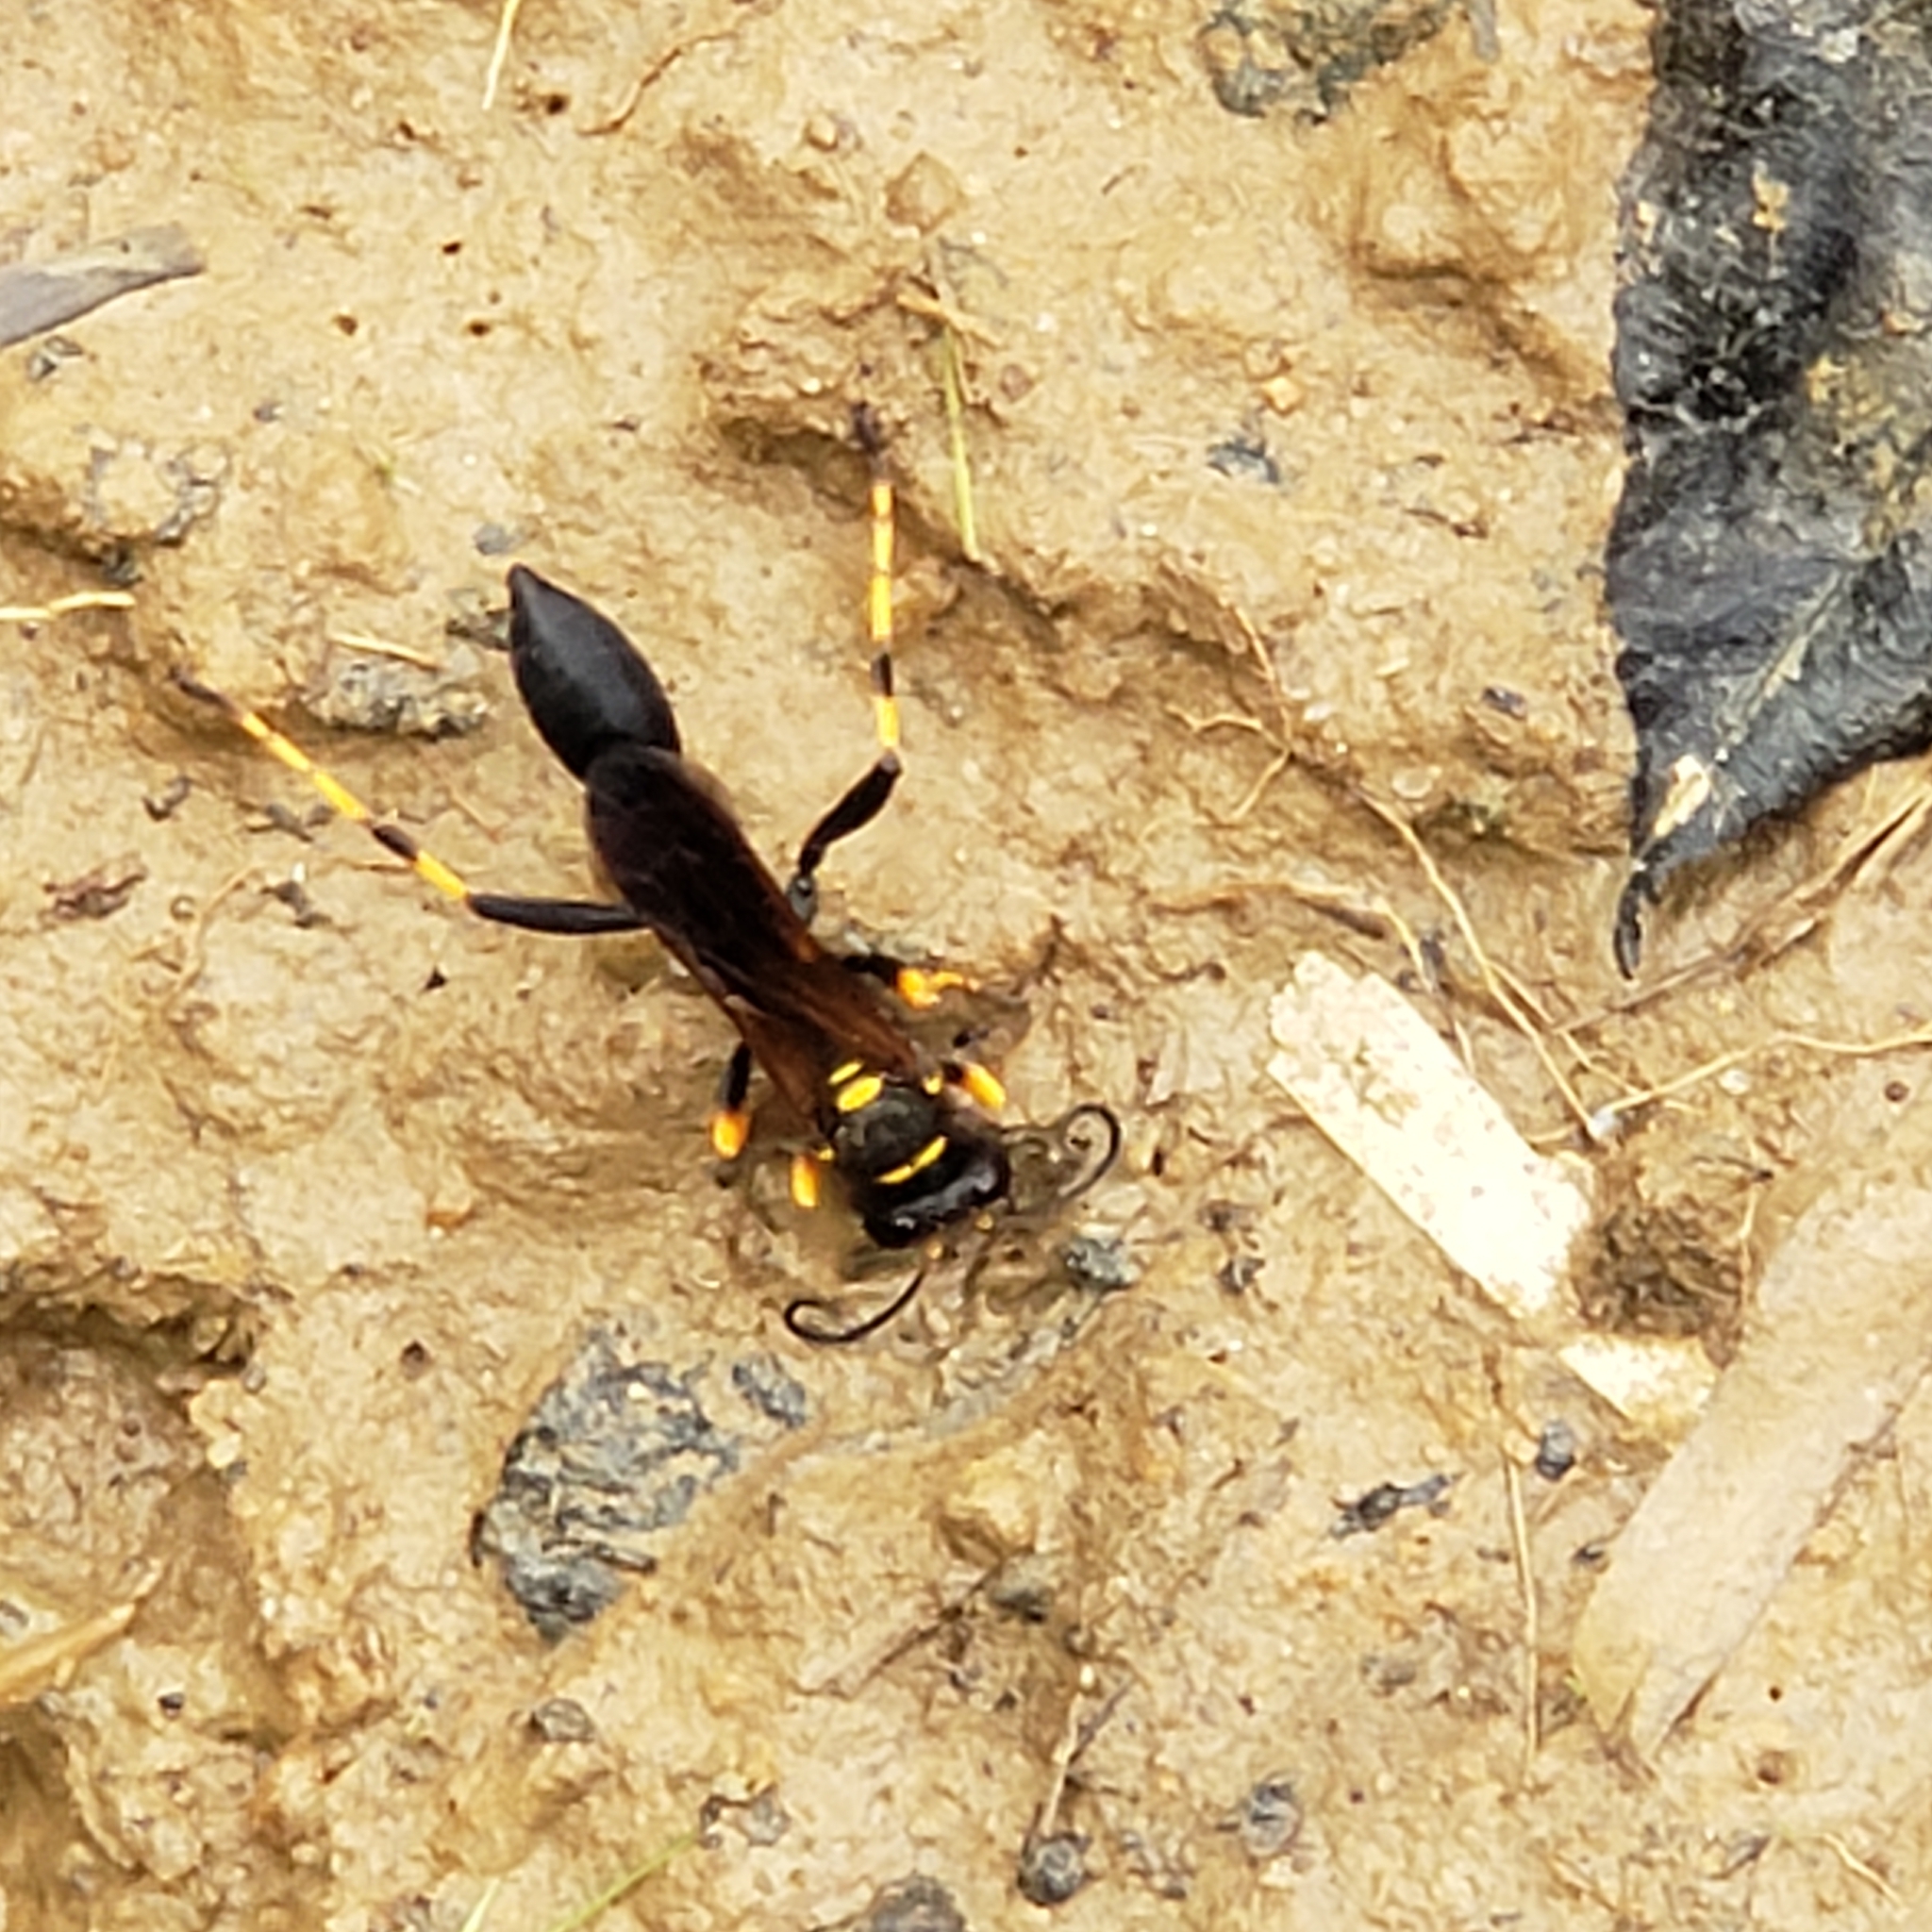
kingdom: Animalia
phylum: Arthropoda
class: Insecta
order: Hymenoptera
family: Sphecidae
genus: Sceliphron
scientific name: Sceliphron caementarium
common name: Mud dauber
